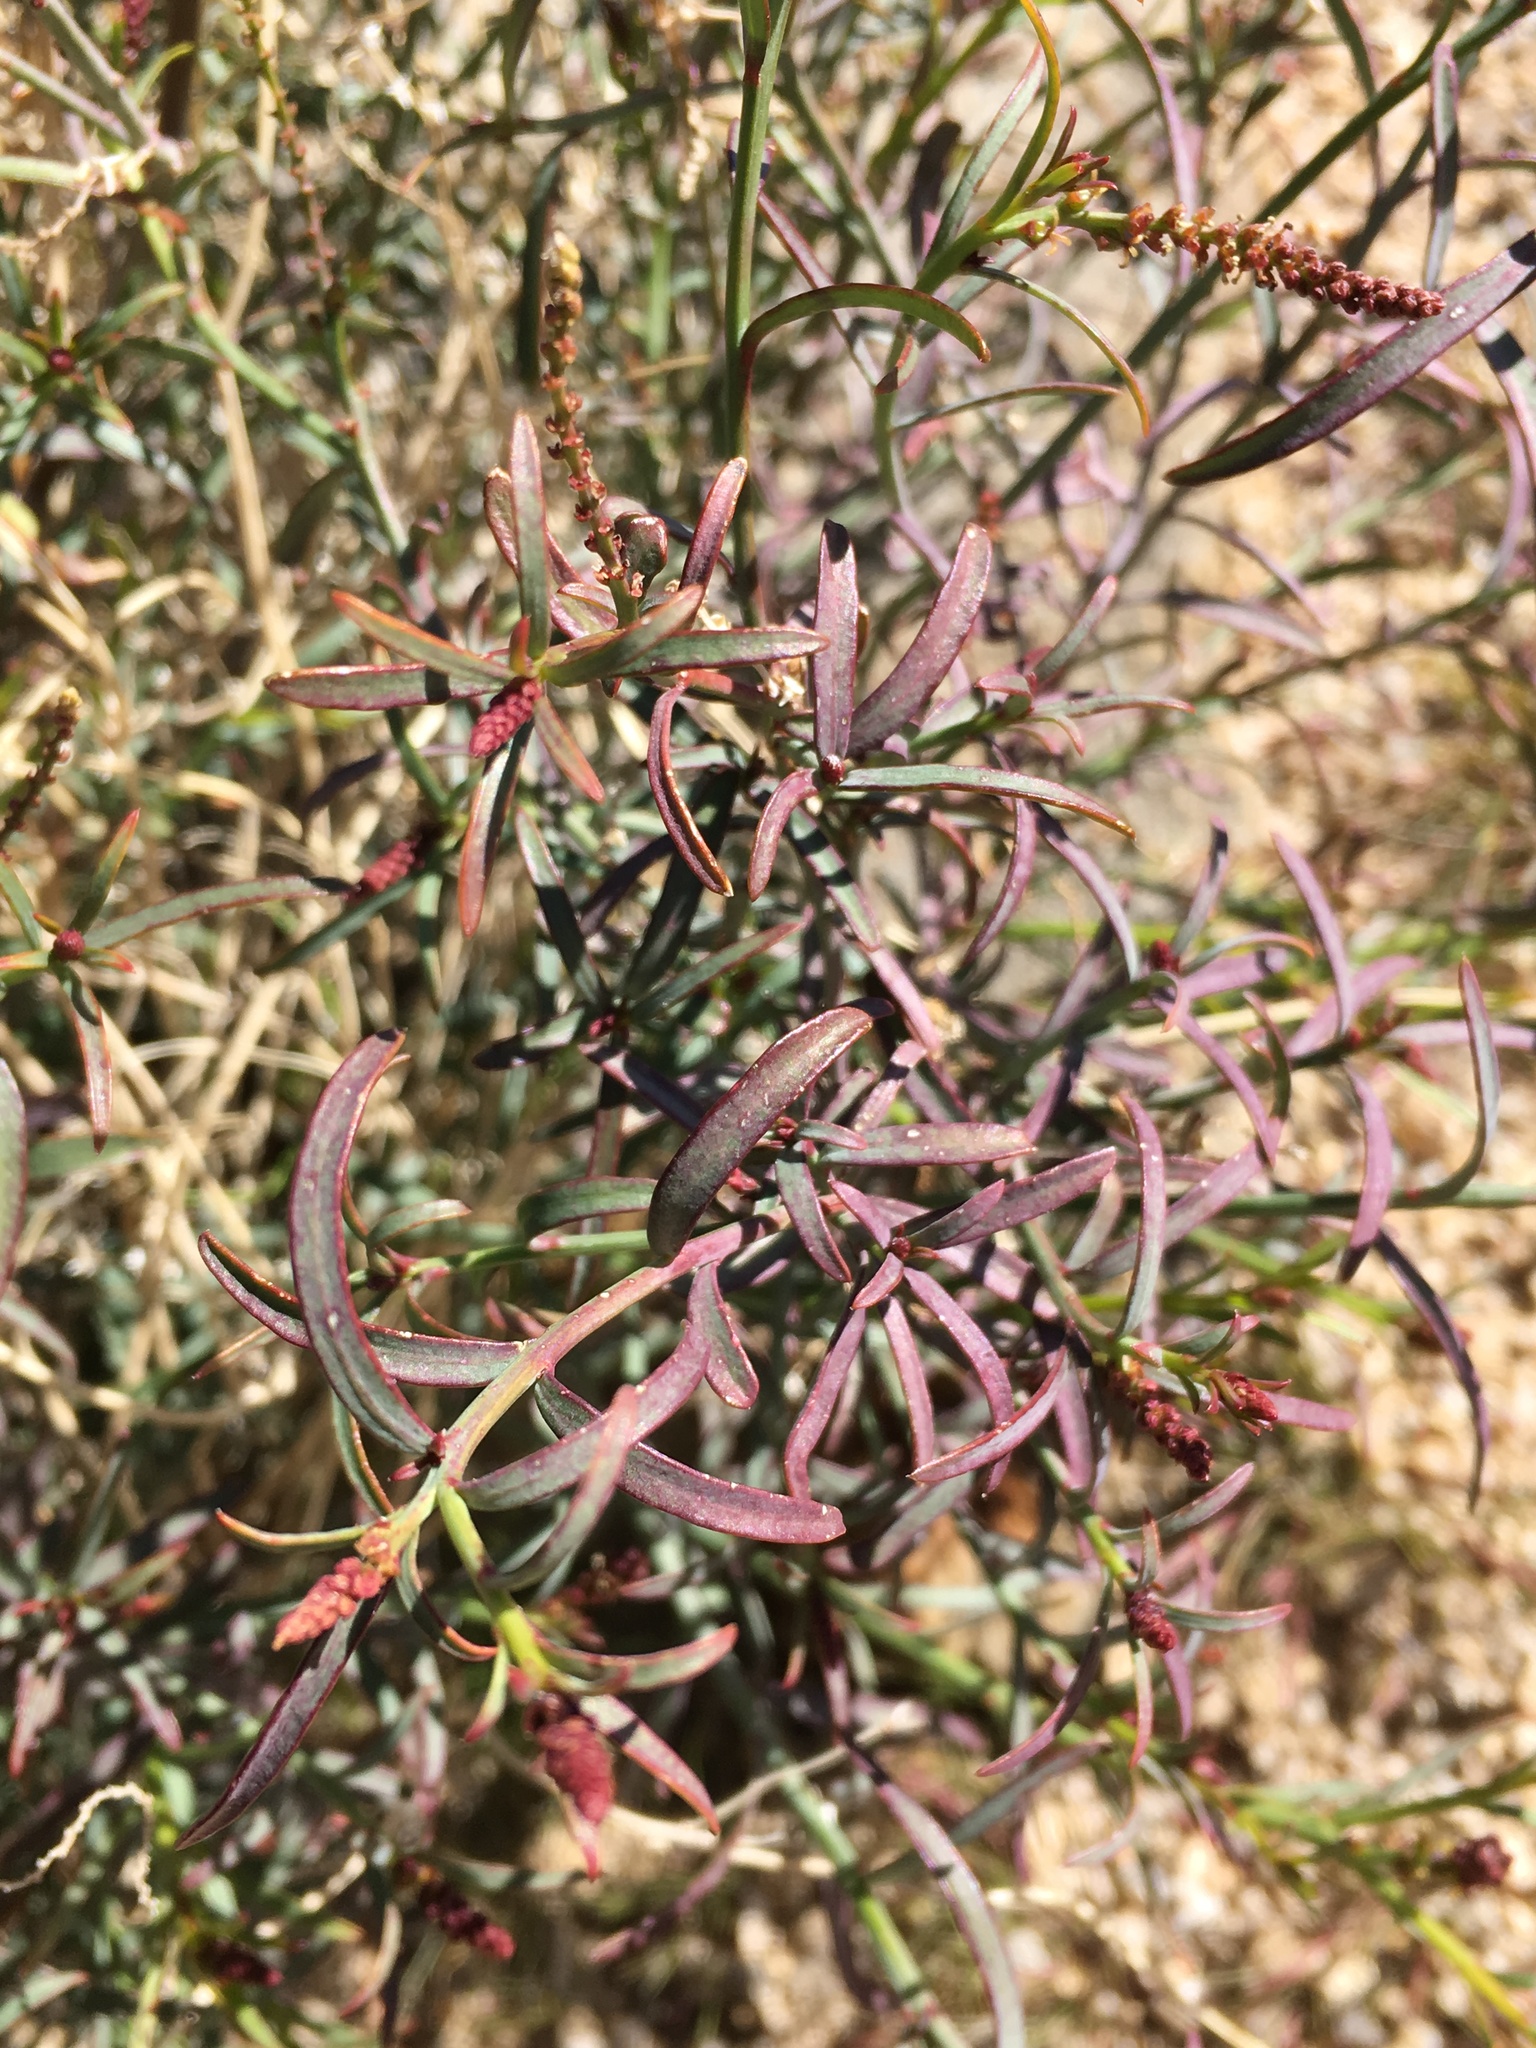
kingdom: Plantae
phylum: Tracheophyta
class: Magnoliopsida
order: Malpighiales
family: Euphorbiaceae
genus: Stillingia
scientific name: Stillingia linearifolia
